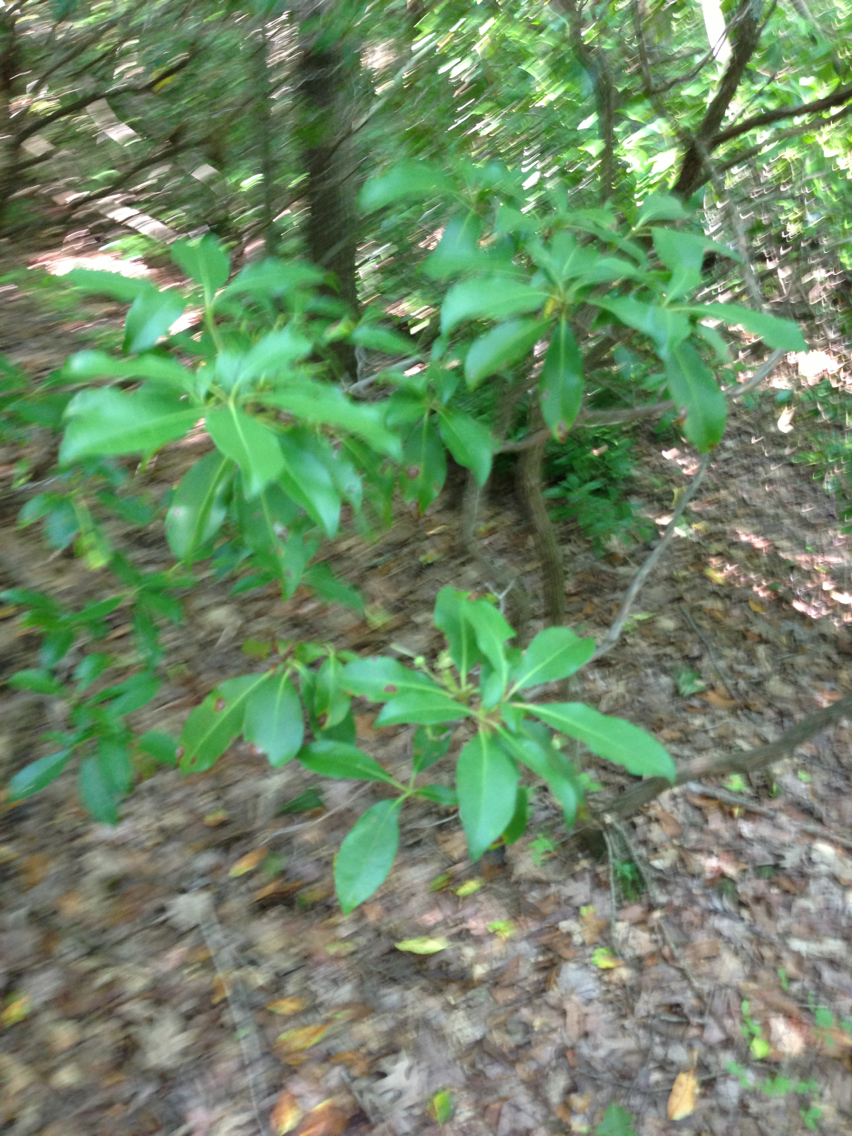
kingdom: Plantae
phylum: Tracheophyta
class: Magnoliopsida
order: Ericales
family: Ericaceae
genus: Kalmia
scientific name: Kalmia latifolia
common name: Mountain-laurel
